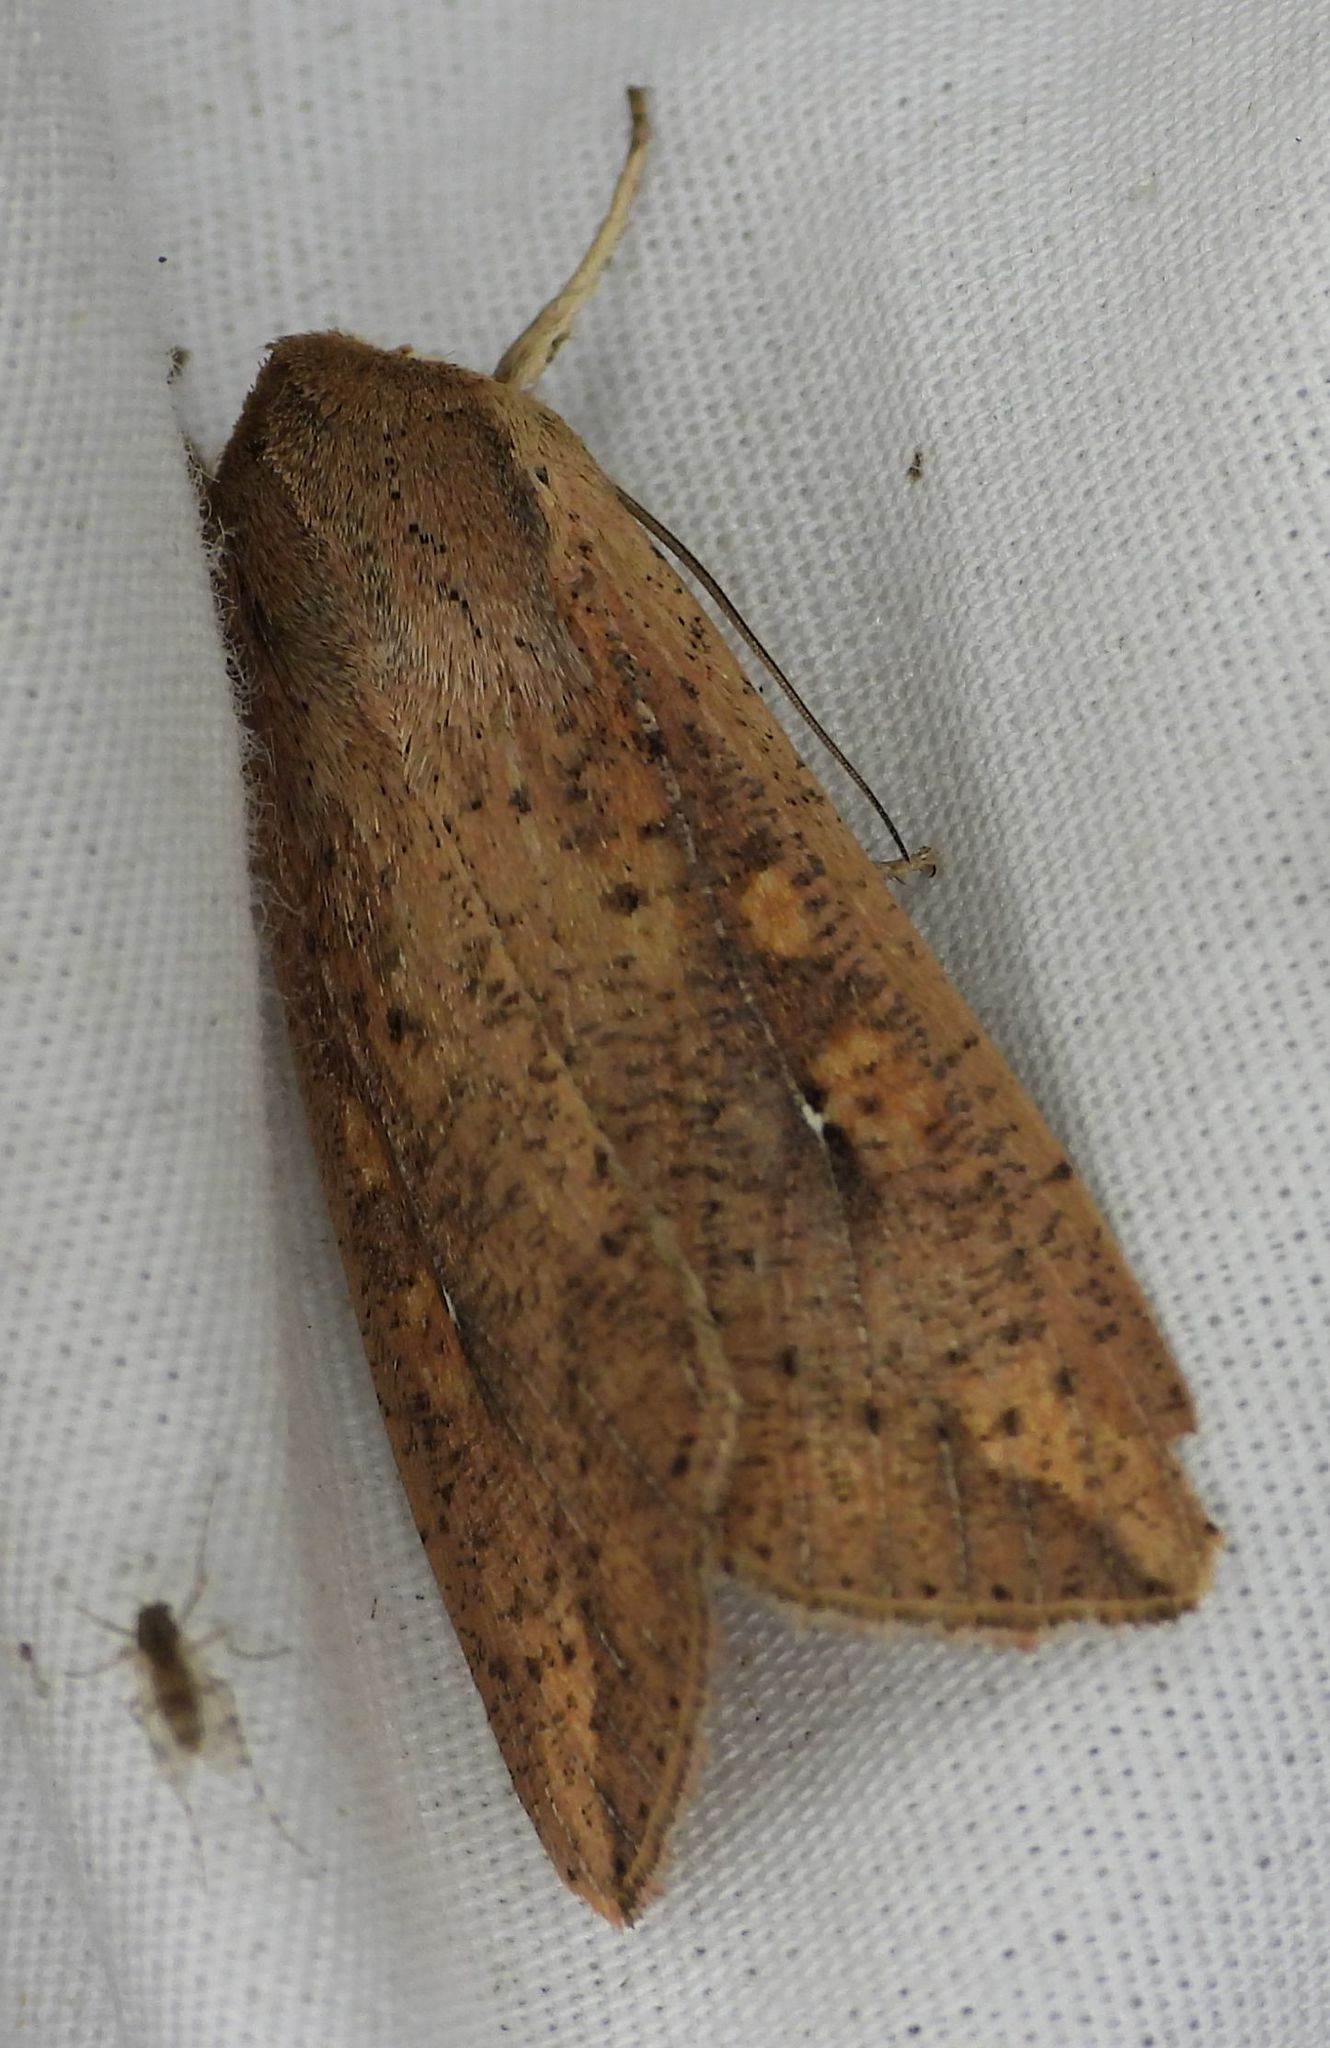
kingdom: Animalia
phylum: Arthropoda
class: Insecta
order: Lepidoptera
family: Noctuidae
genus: Mythimna
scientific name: Mythimna unipuncta
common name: White-speck
